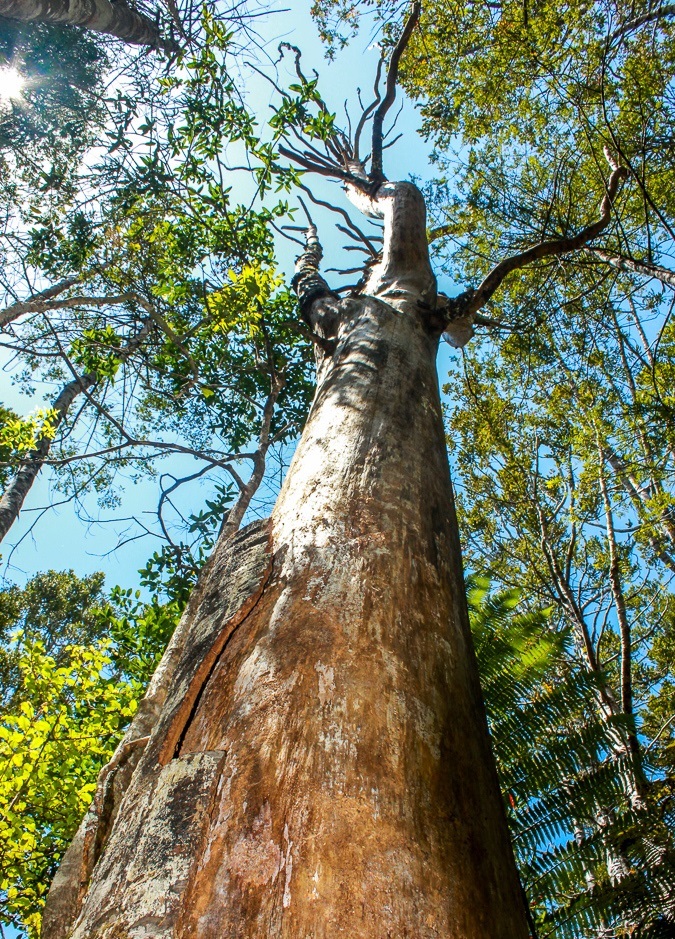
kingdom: Plantae
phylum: Tracheophyta
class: Pinopsida
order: Pinales
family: Araucariaceae
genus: Agathis
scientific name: Agathis australis
